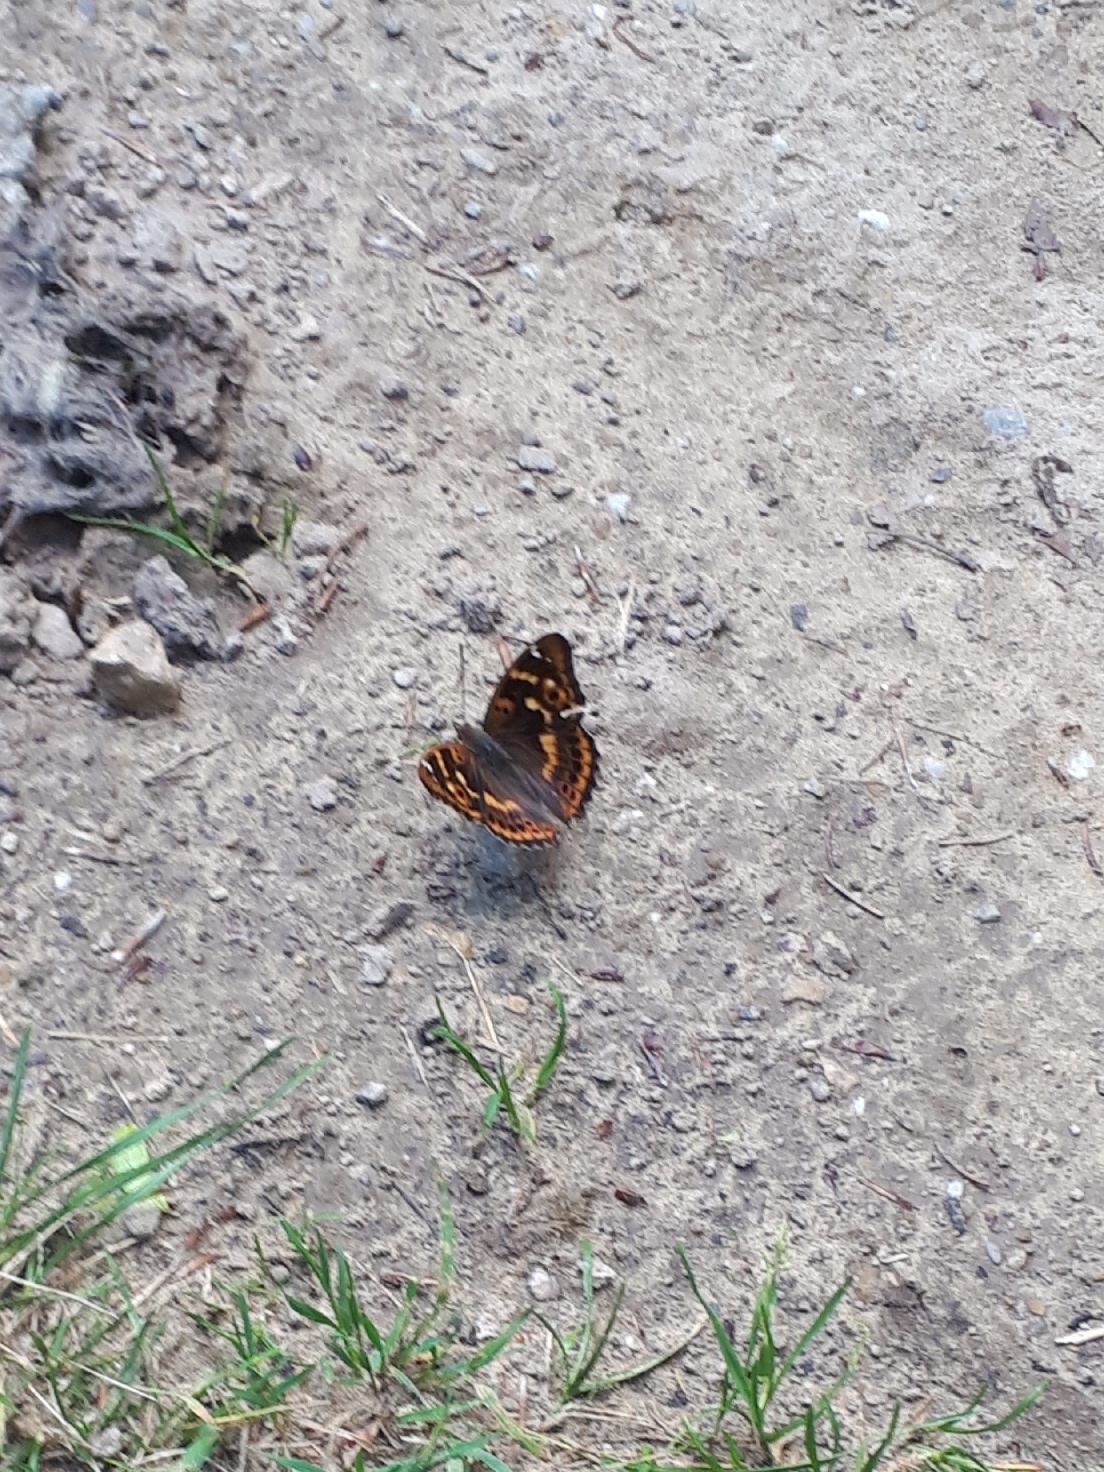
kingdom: Animalia
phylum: Arthropoda
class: Insecta
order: Lepidoptera
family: Nymphalidae
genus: Apatura
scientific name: Apatura ilia
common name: Lesser purple emperor
